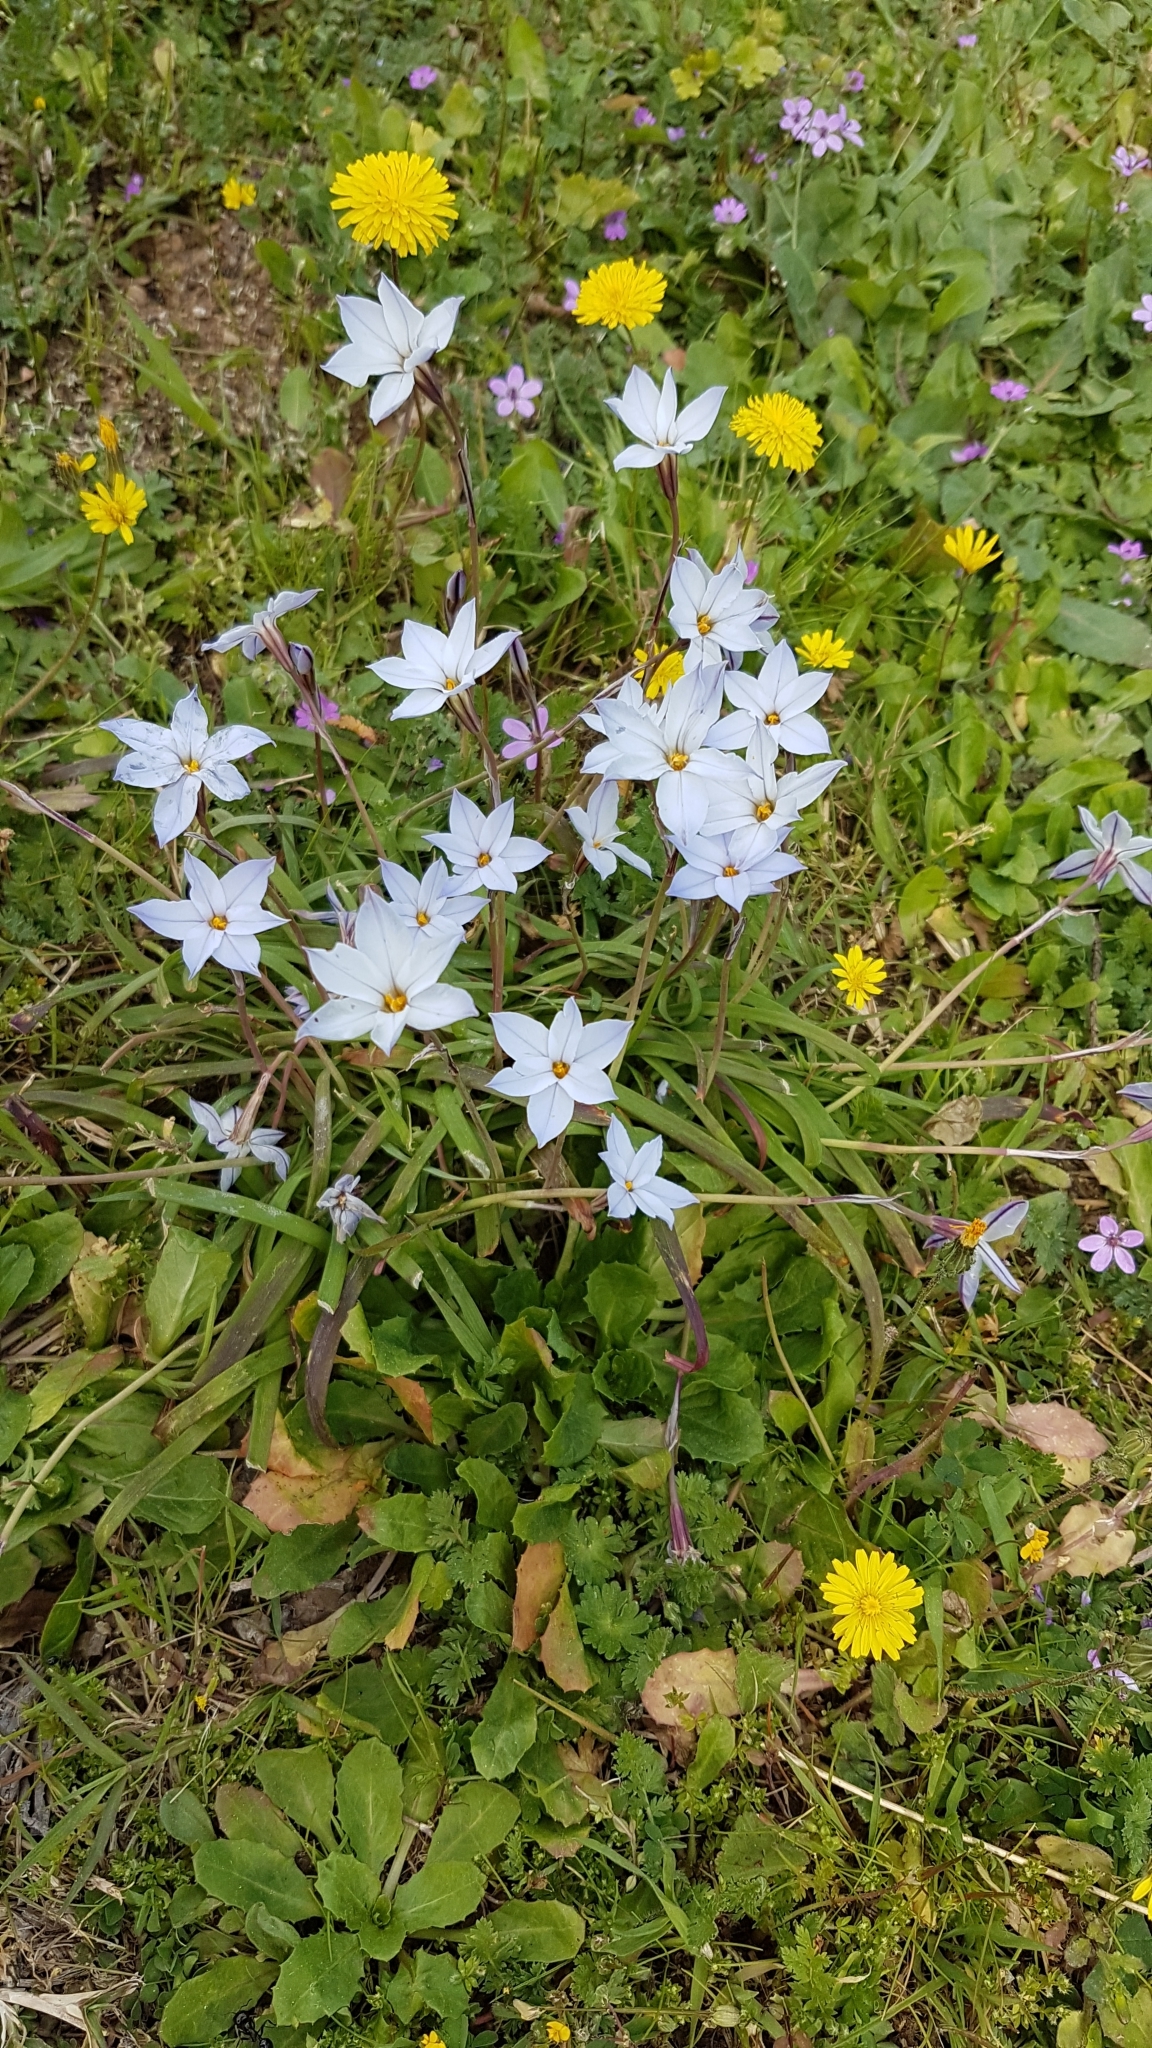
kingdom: Plantae
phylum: Tracheophyta
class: Liliopsida
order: Asparagales
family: Amaryllidaceae
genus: Ipheion
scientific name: Ipheion uniflorum
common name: Spring starflower
